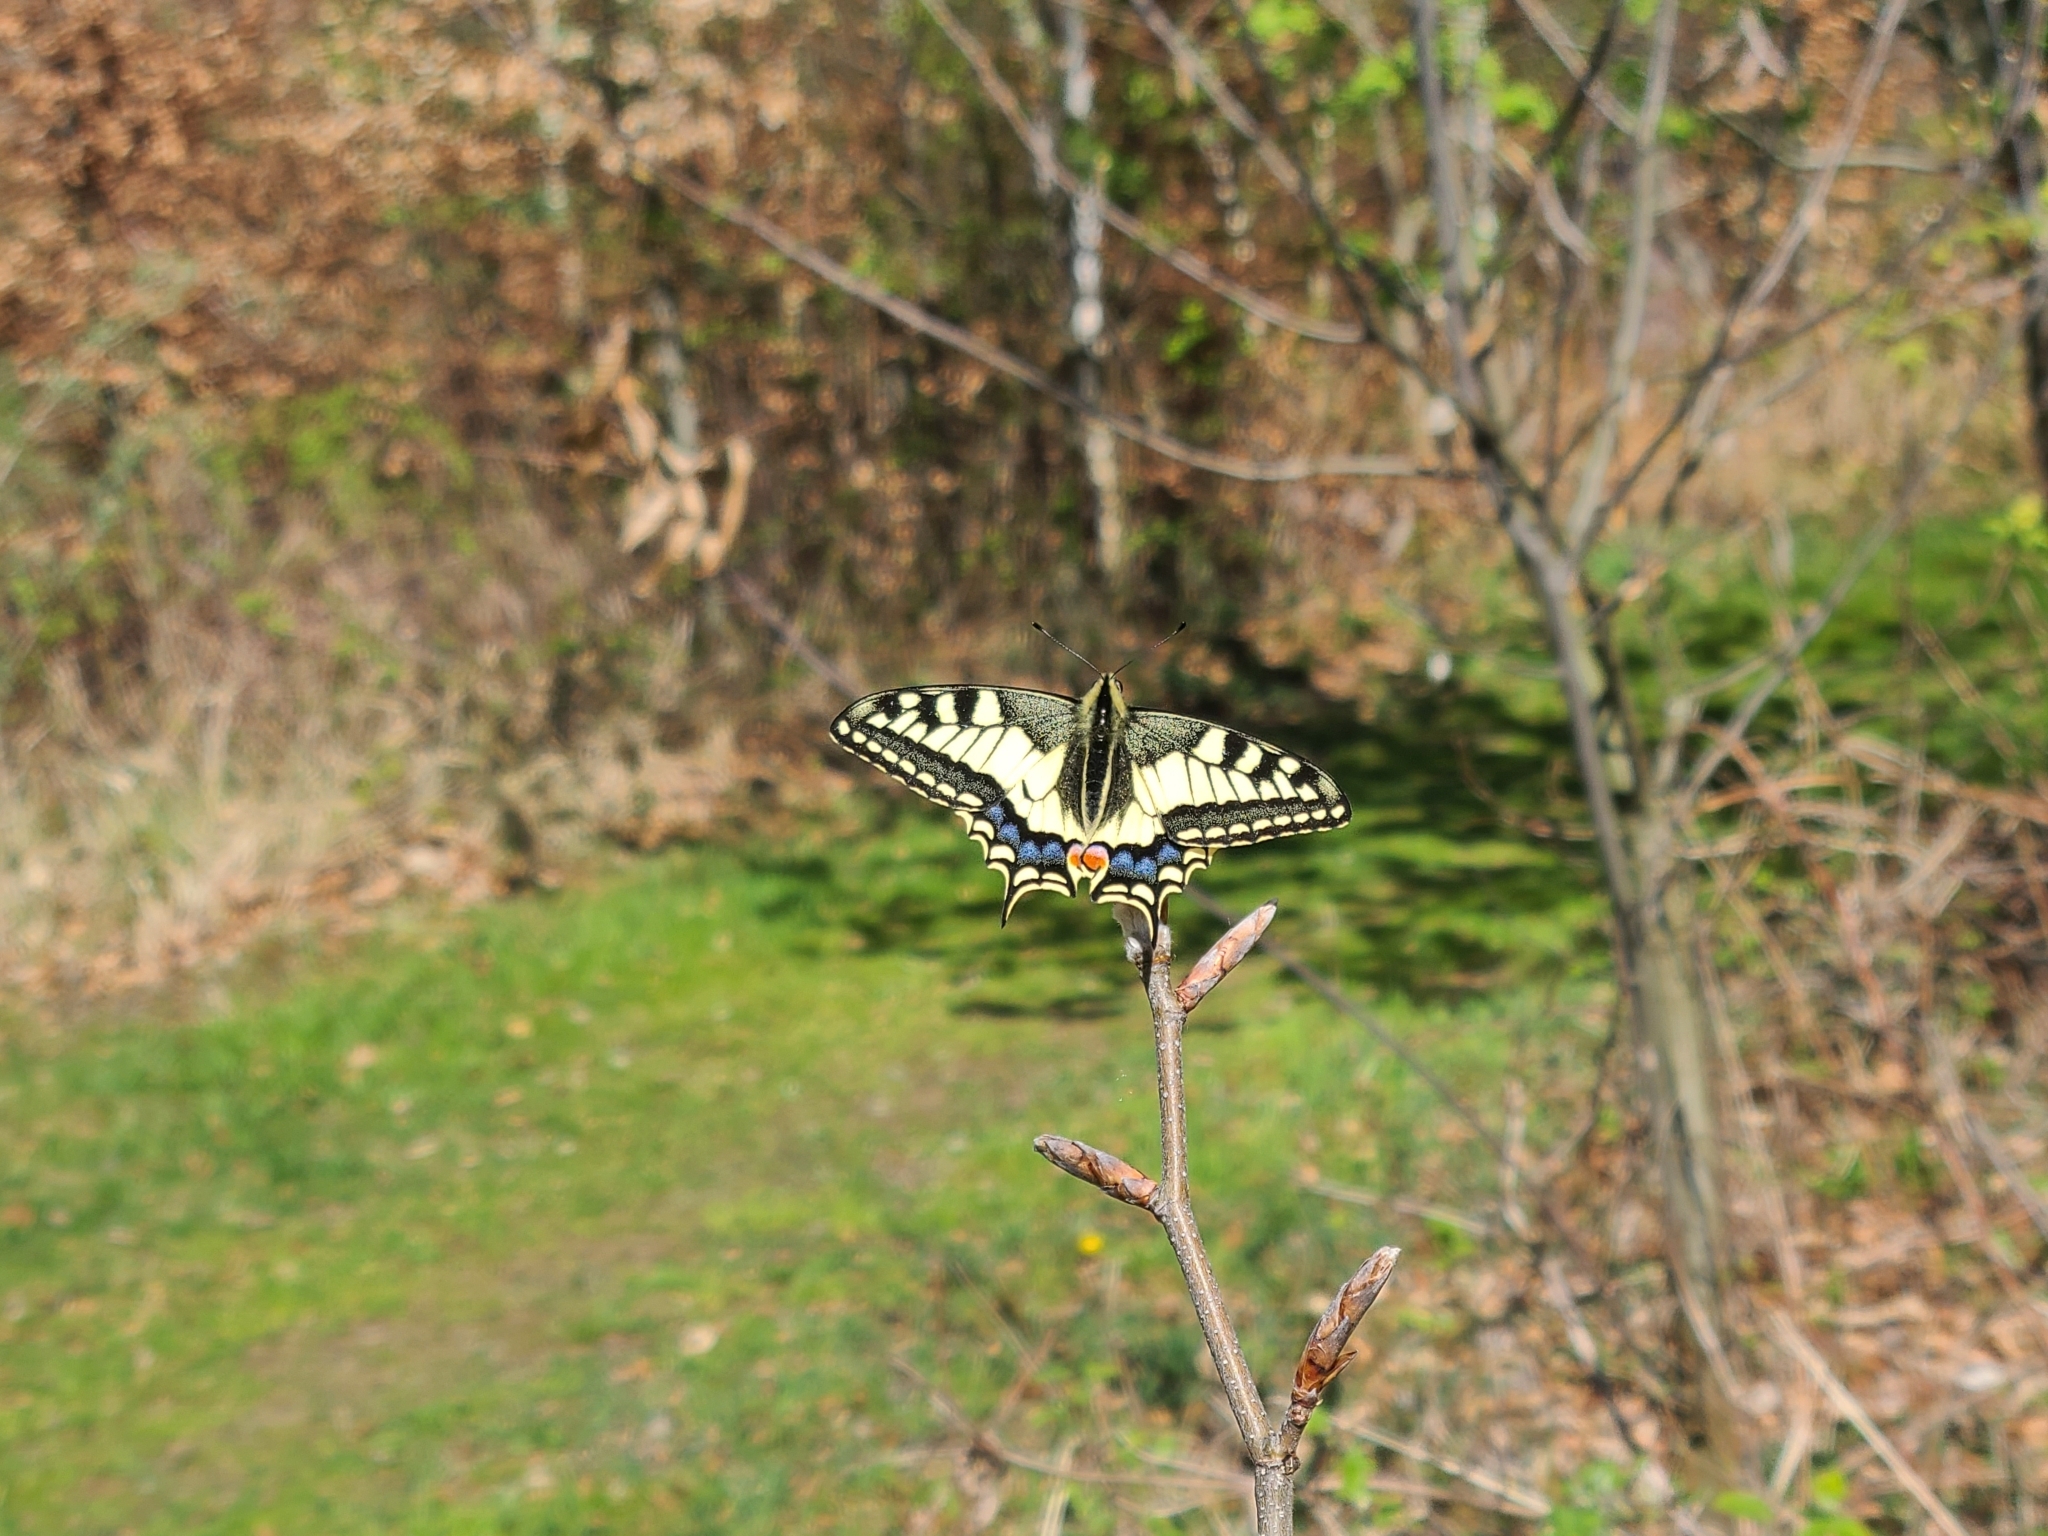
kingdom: Animalia
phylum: Arthropoda
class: Insecta
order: Lepidoptera
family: Papilionidae
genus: Papilio
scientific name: Papilio machaon
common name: Swallowtail
